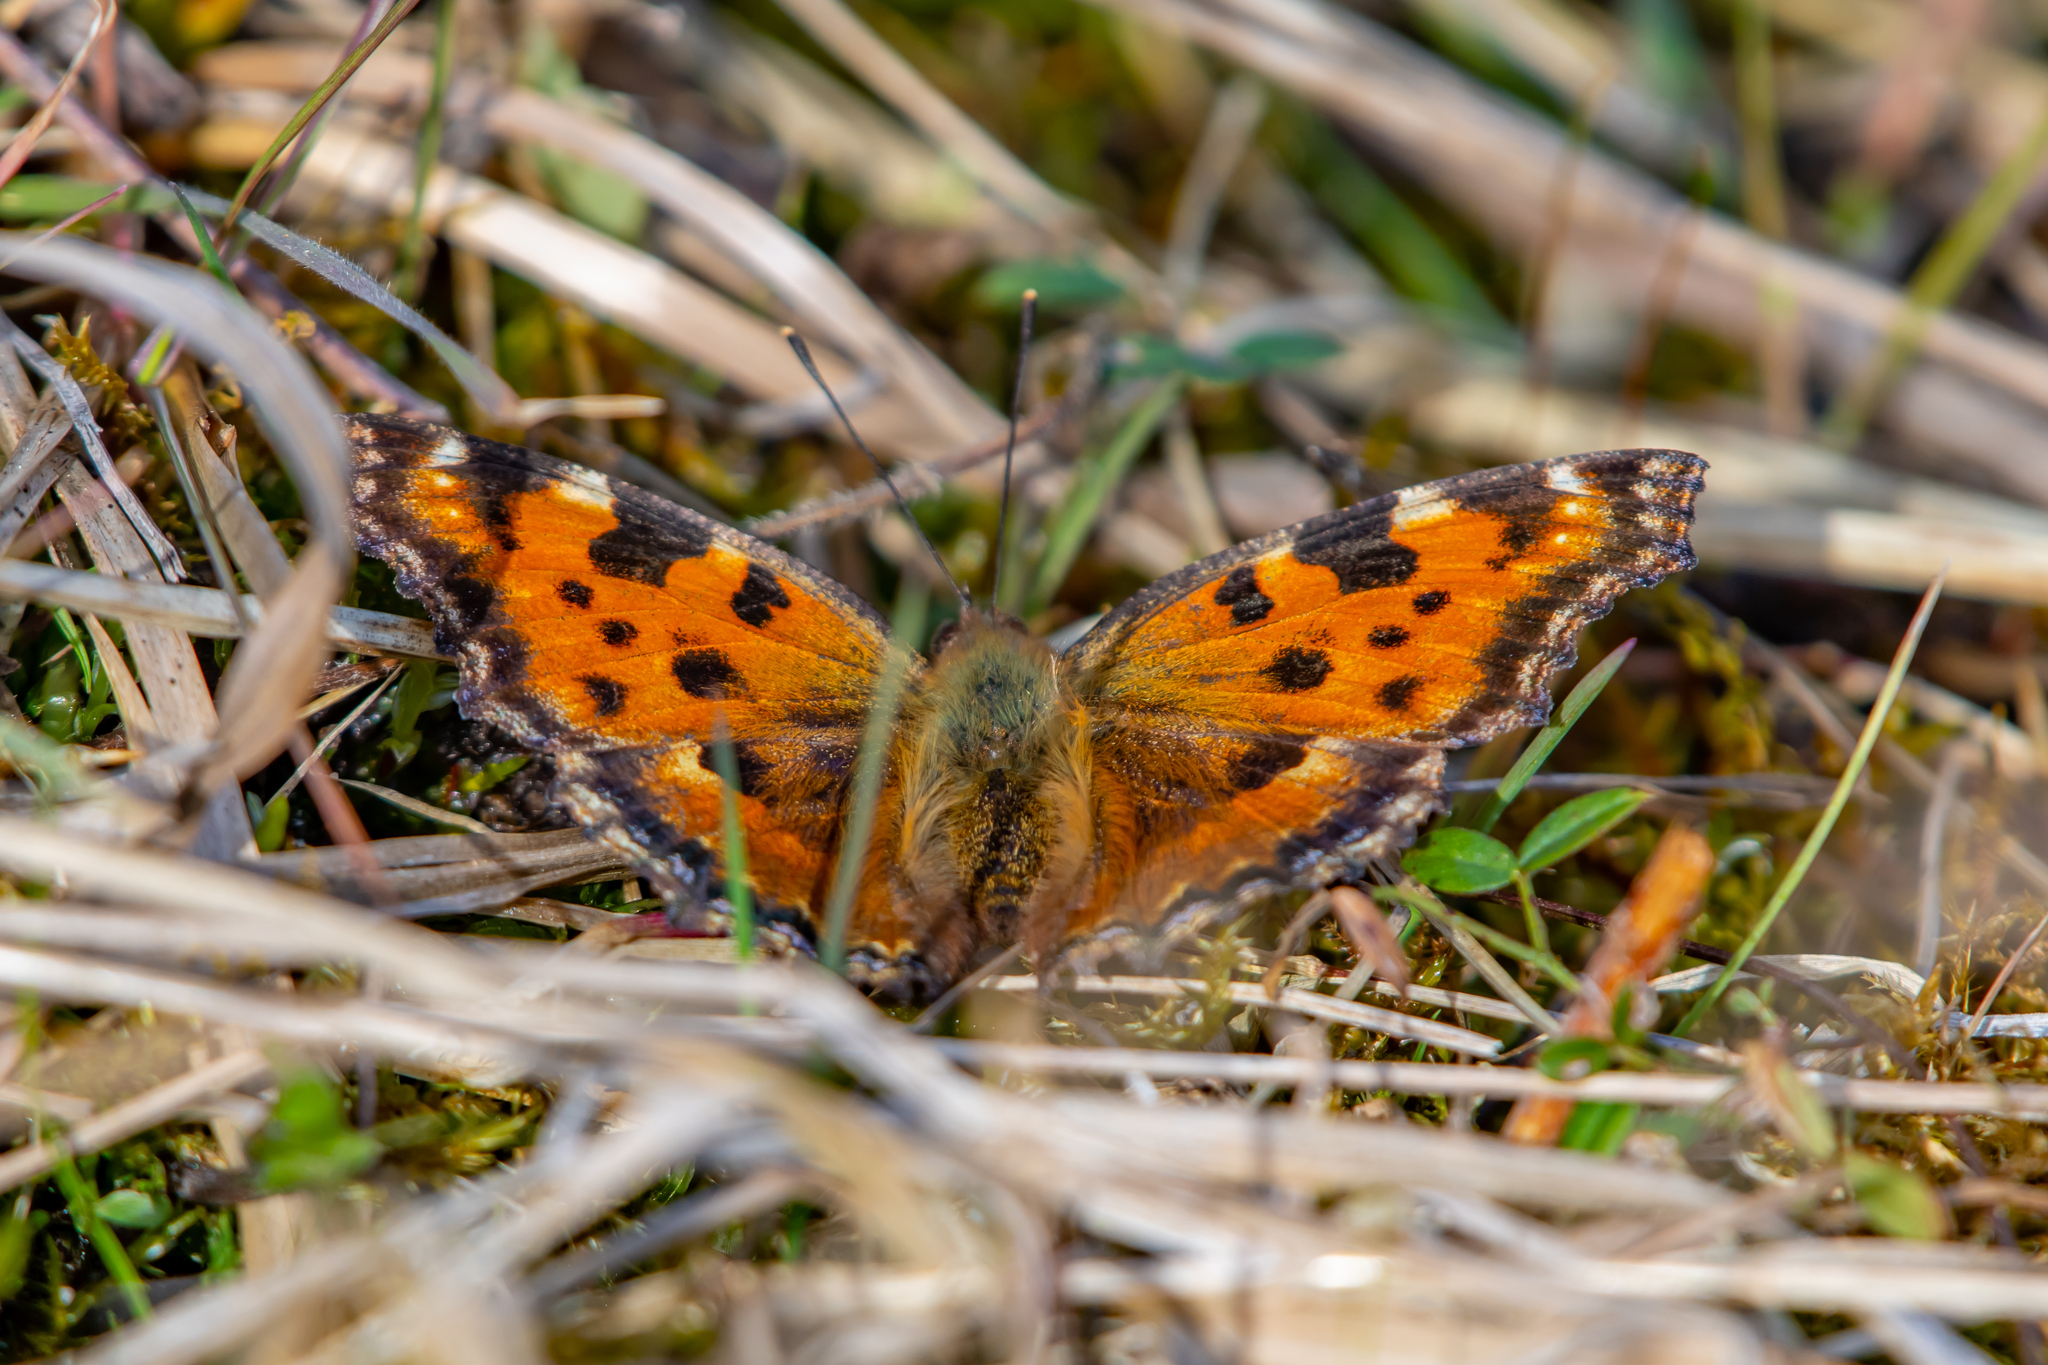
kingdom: Animalia
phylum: Arthropoda
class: Insecta
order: Lepidoptera
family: Nymphalidae
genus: Nymphalis
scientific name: Nymphalis polychloros
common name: Large tortoiseshell
